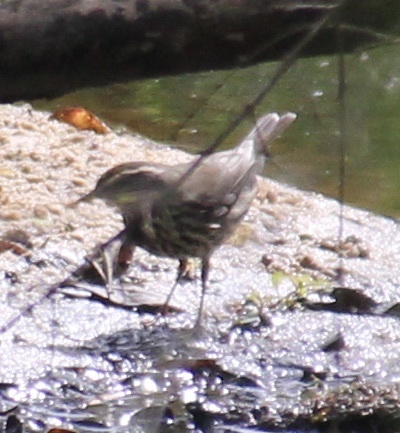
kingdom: Animalia
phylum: Chordata
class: Aves
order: Passeriformes
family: Parulidae
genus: Parkesia
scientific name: Parkesia noveboracensis
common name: Northern waterthrush
